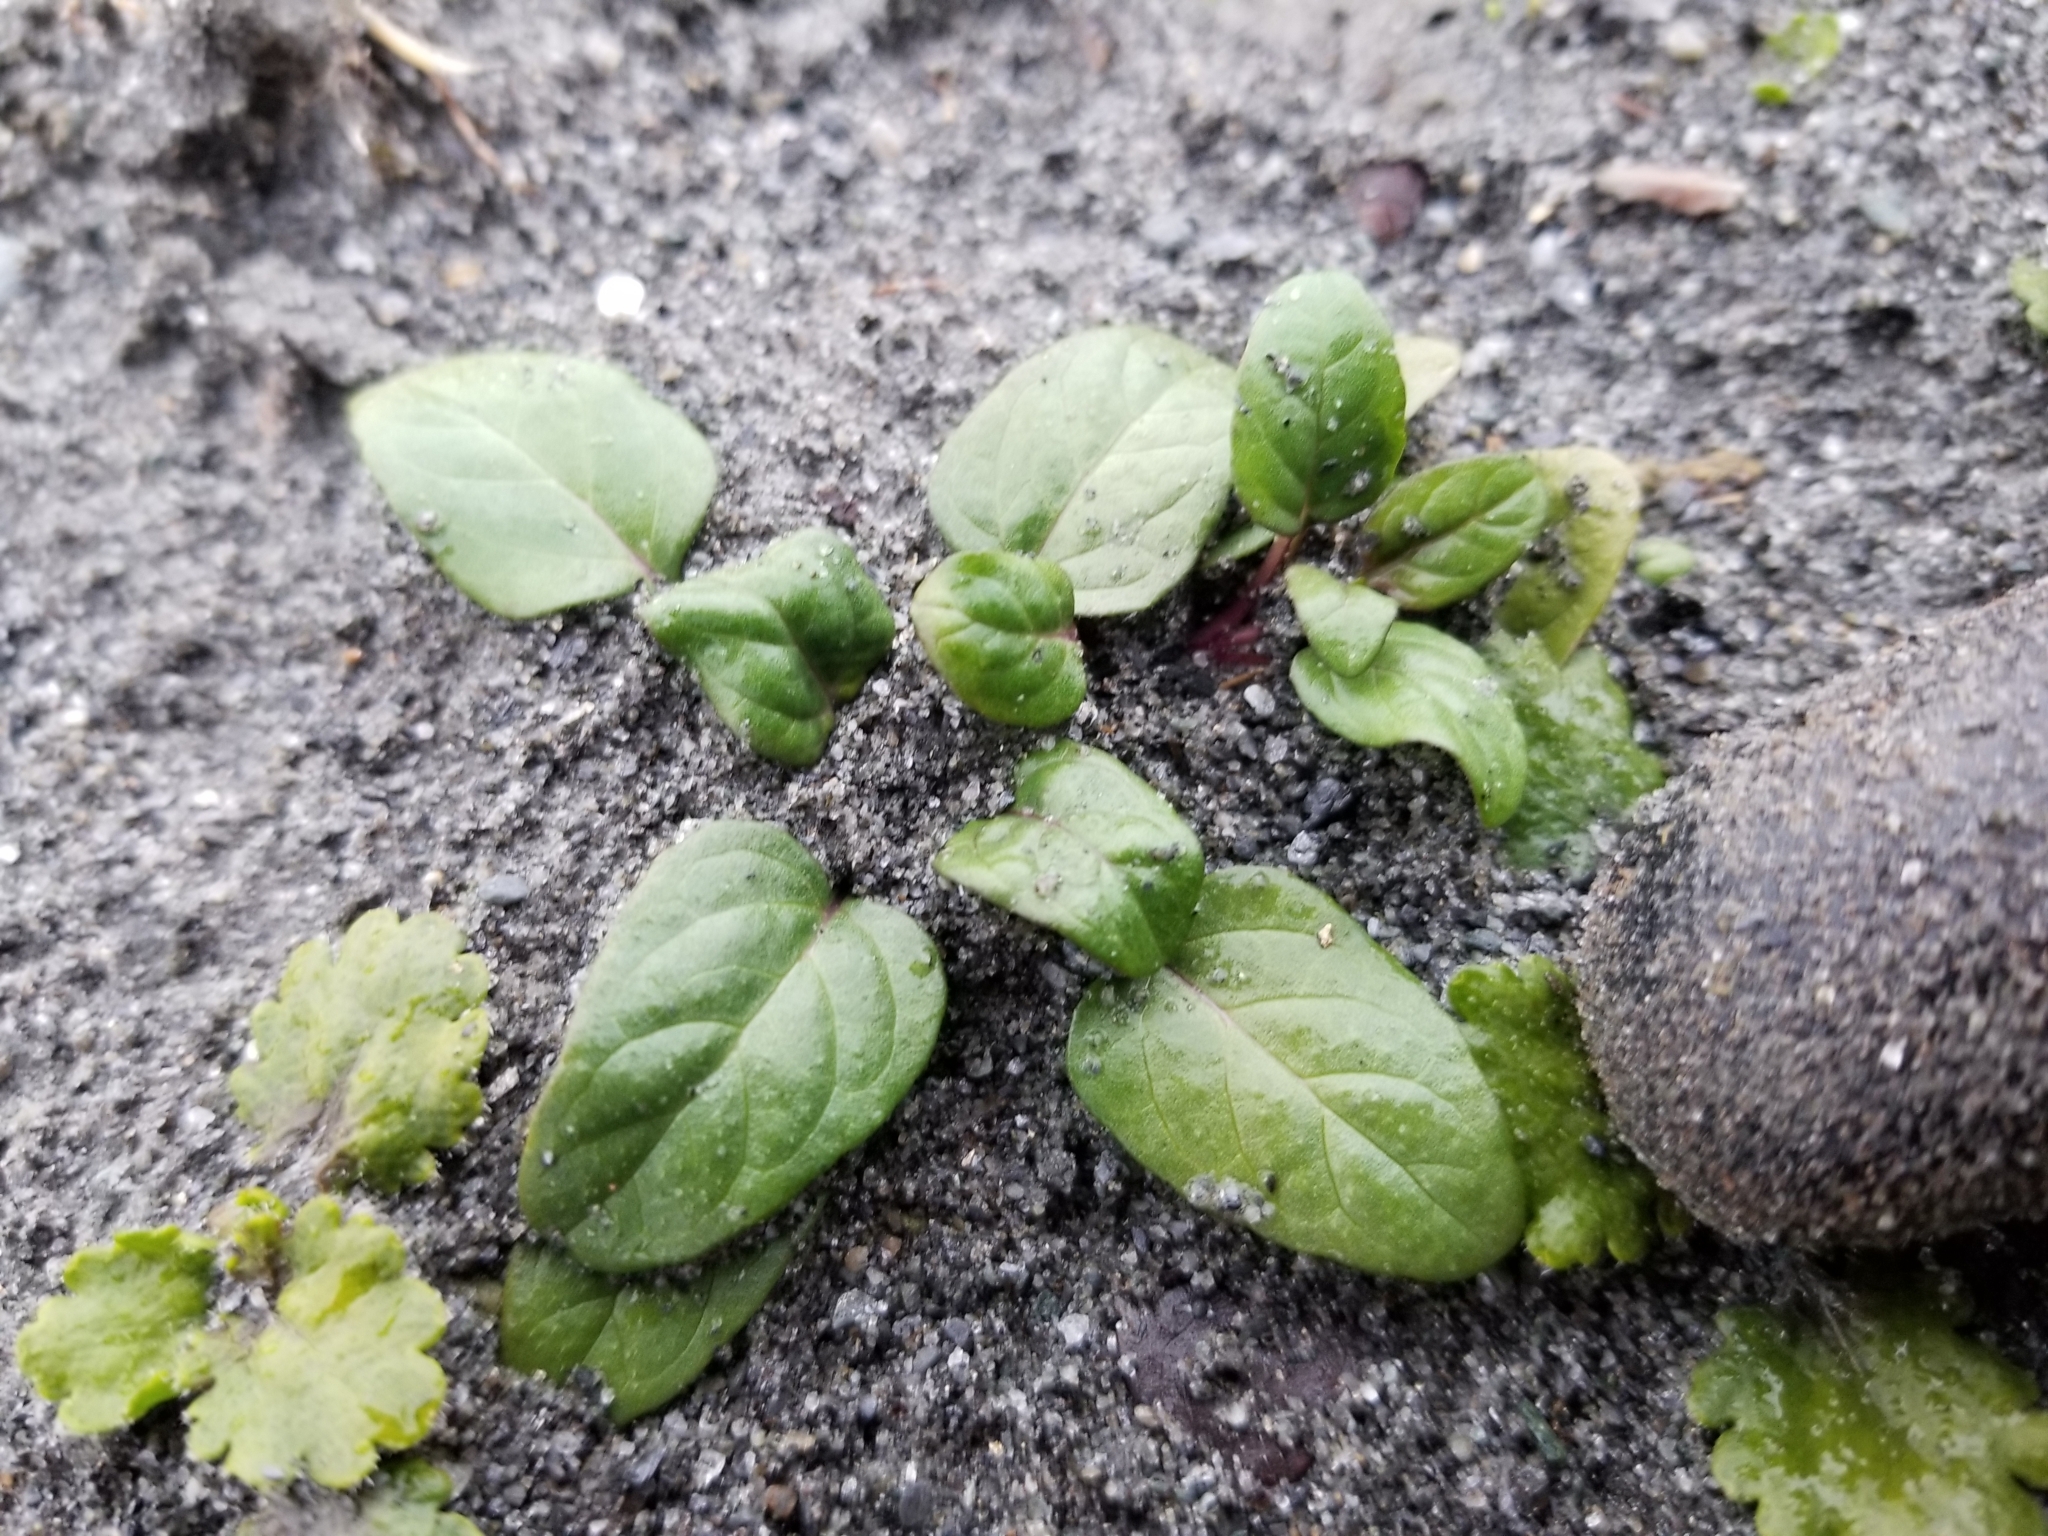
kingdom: Plantae
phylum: Tracheophyta
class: Magnoliopsida
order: Lamiales
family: Lamiaceae
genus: Prunella
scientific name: Prunella vulgaris
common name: Heal-all
